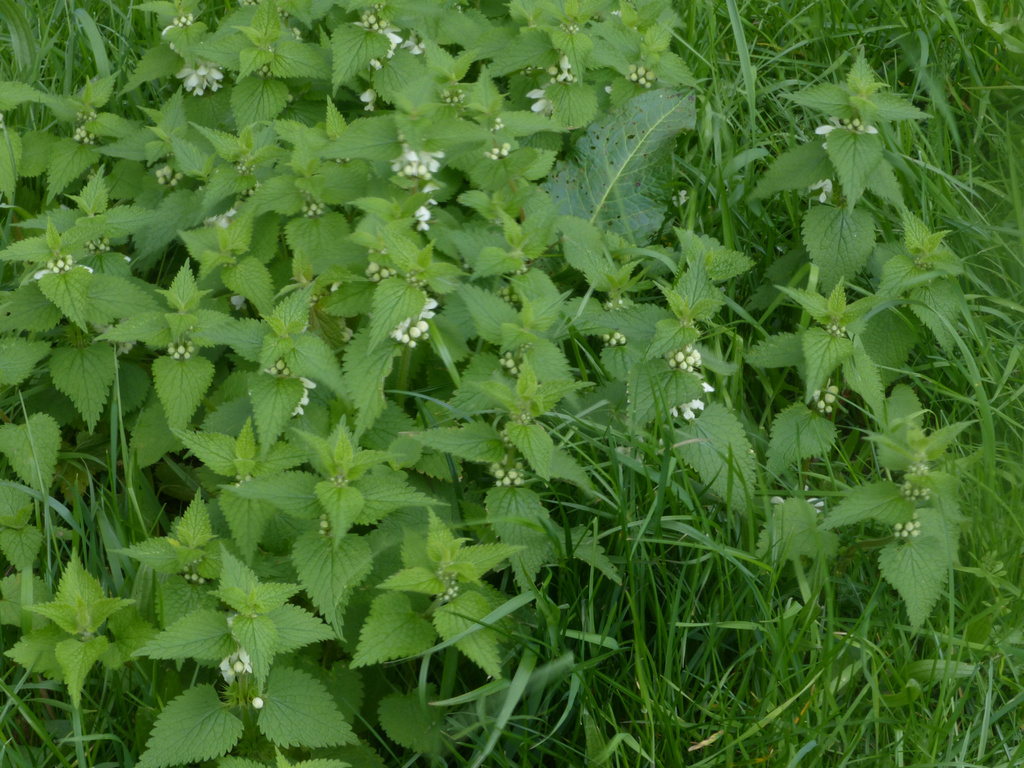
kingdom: Plantae
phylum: Tracheophyta
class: Magnoliopsida
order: Lamiales
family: Lamiaceae
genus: Lamium
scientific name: Lamium album
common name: White dead-nettle
